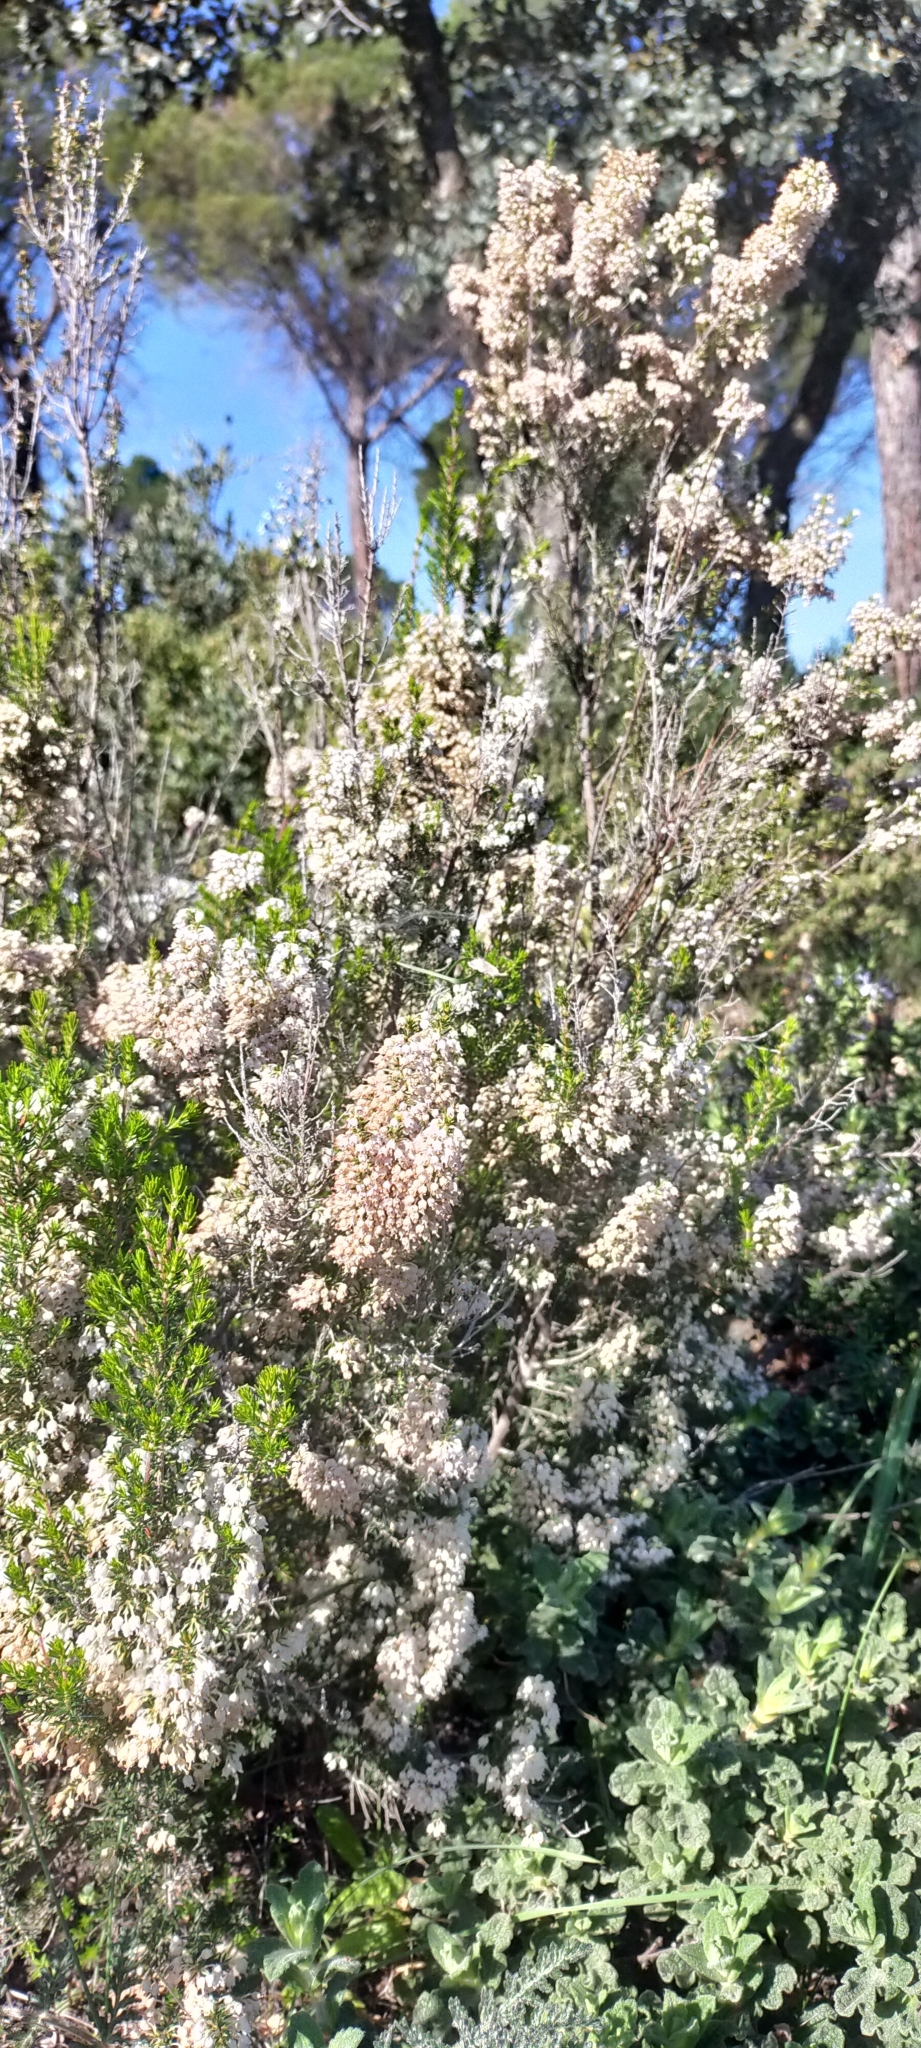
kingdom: Plantae
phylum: Tracheophyta
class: Magnoliopsida
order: Ericales
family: Ericaceae
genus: Erica
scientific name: Erica arborea
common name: Tree heath
